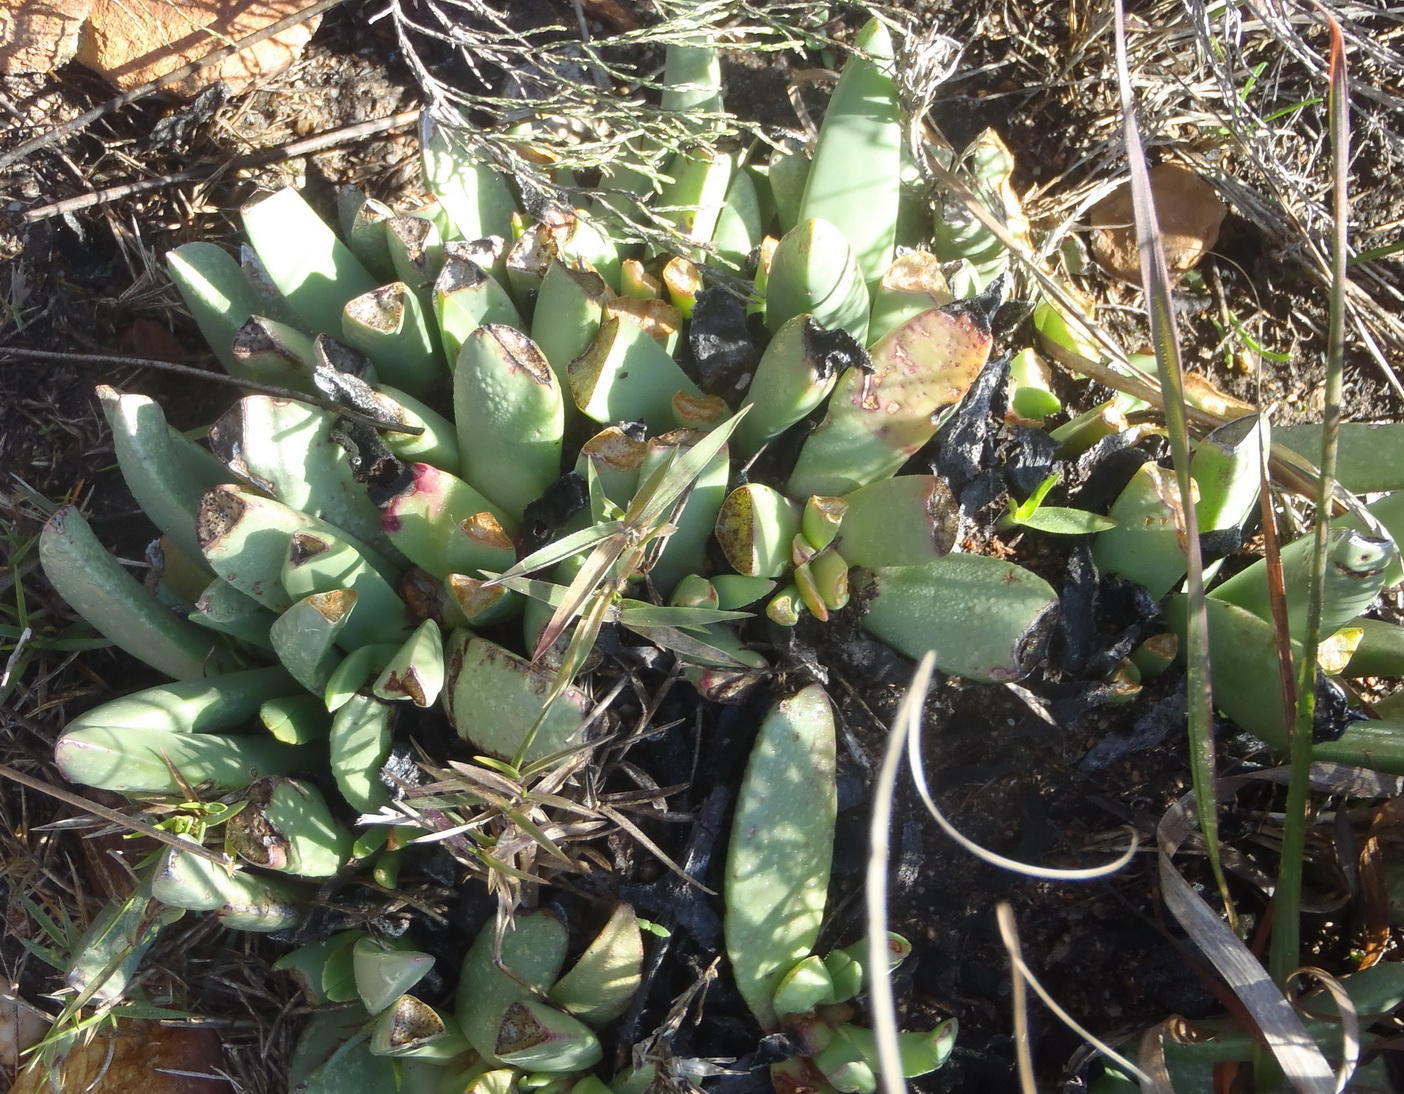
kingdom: Plantae
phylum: Tracheophyta
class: Magnoliopsida
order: Caryophyllales
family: Aizoaceae
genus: Machairophyllum
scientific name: Machairophyllum albidum
